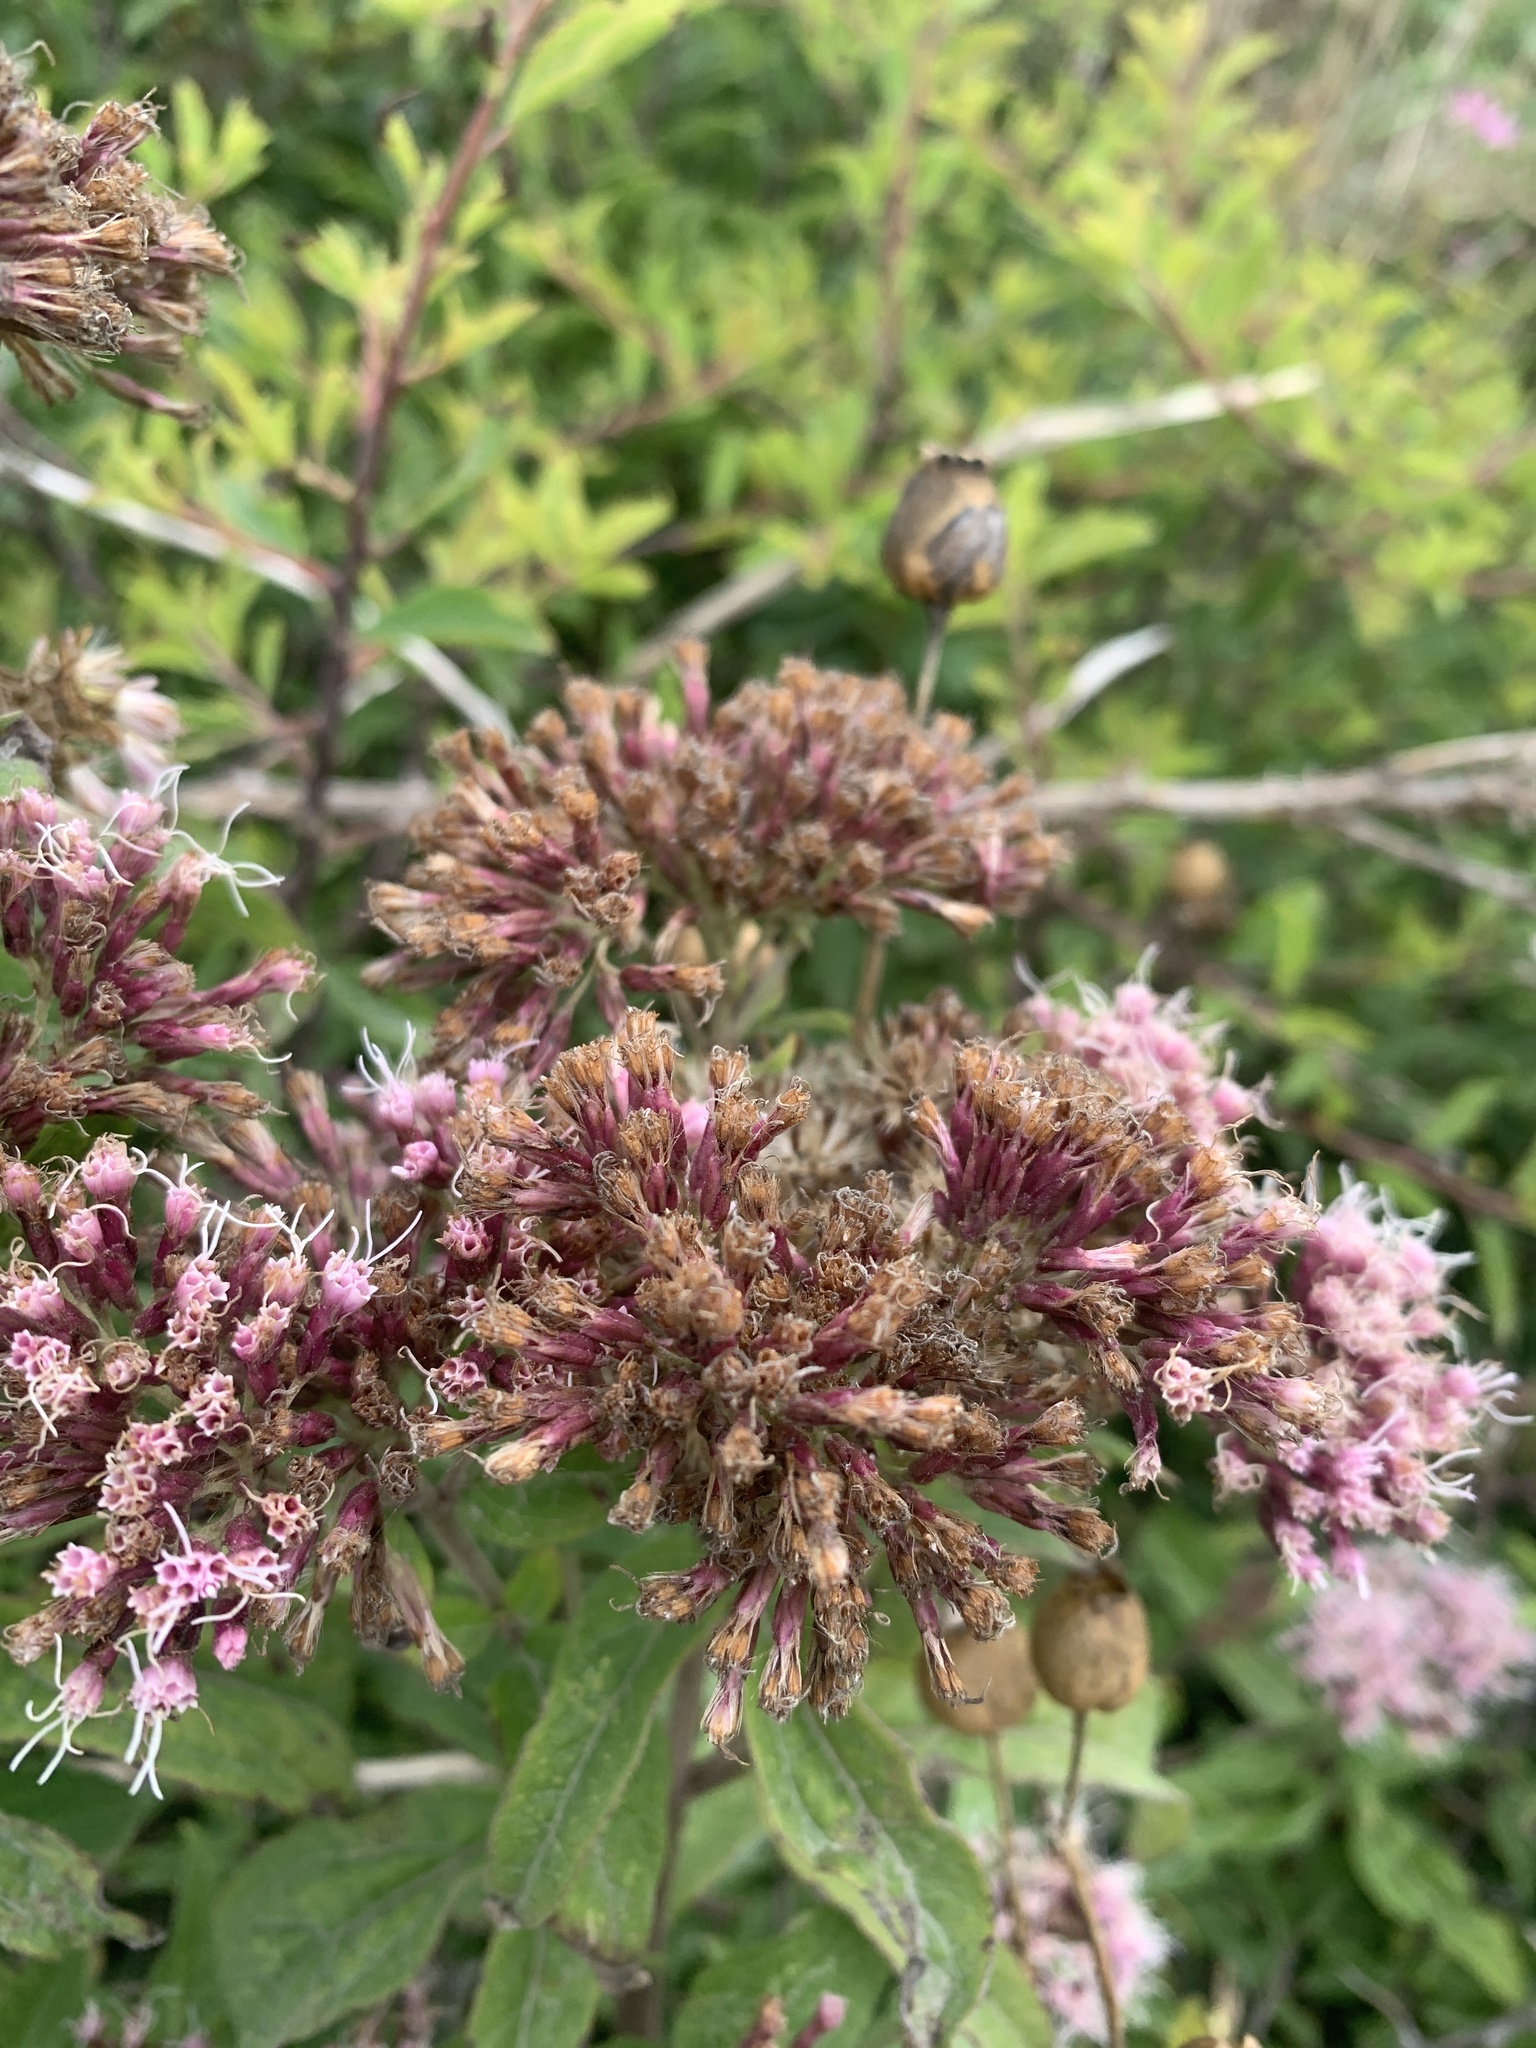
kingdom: Plantae
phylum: Tracheophyta
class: Magnoliopsida
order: Asterales
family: Asteraceae
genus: Eupatorium
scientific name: Eupatorium cannabinum
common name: Hemp-agrimony
